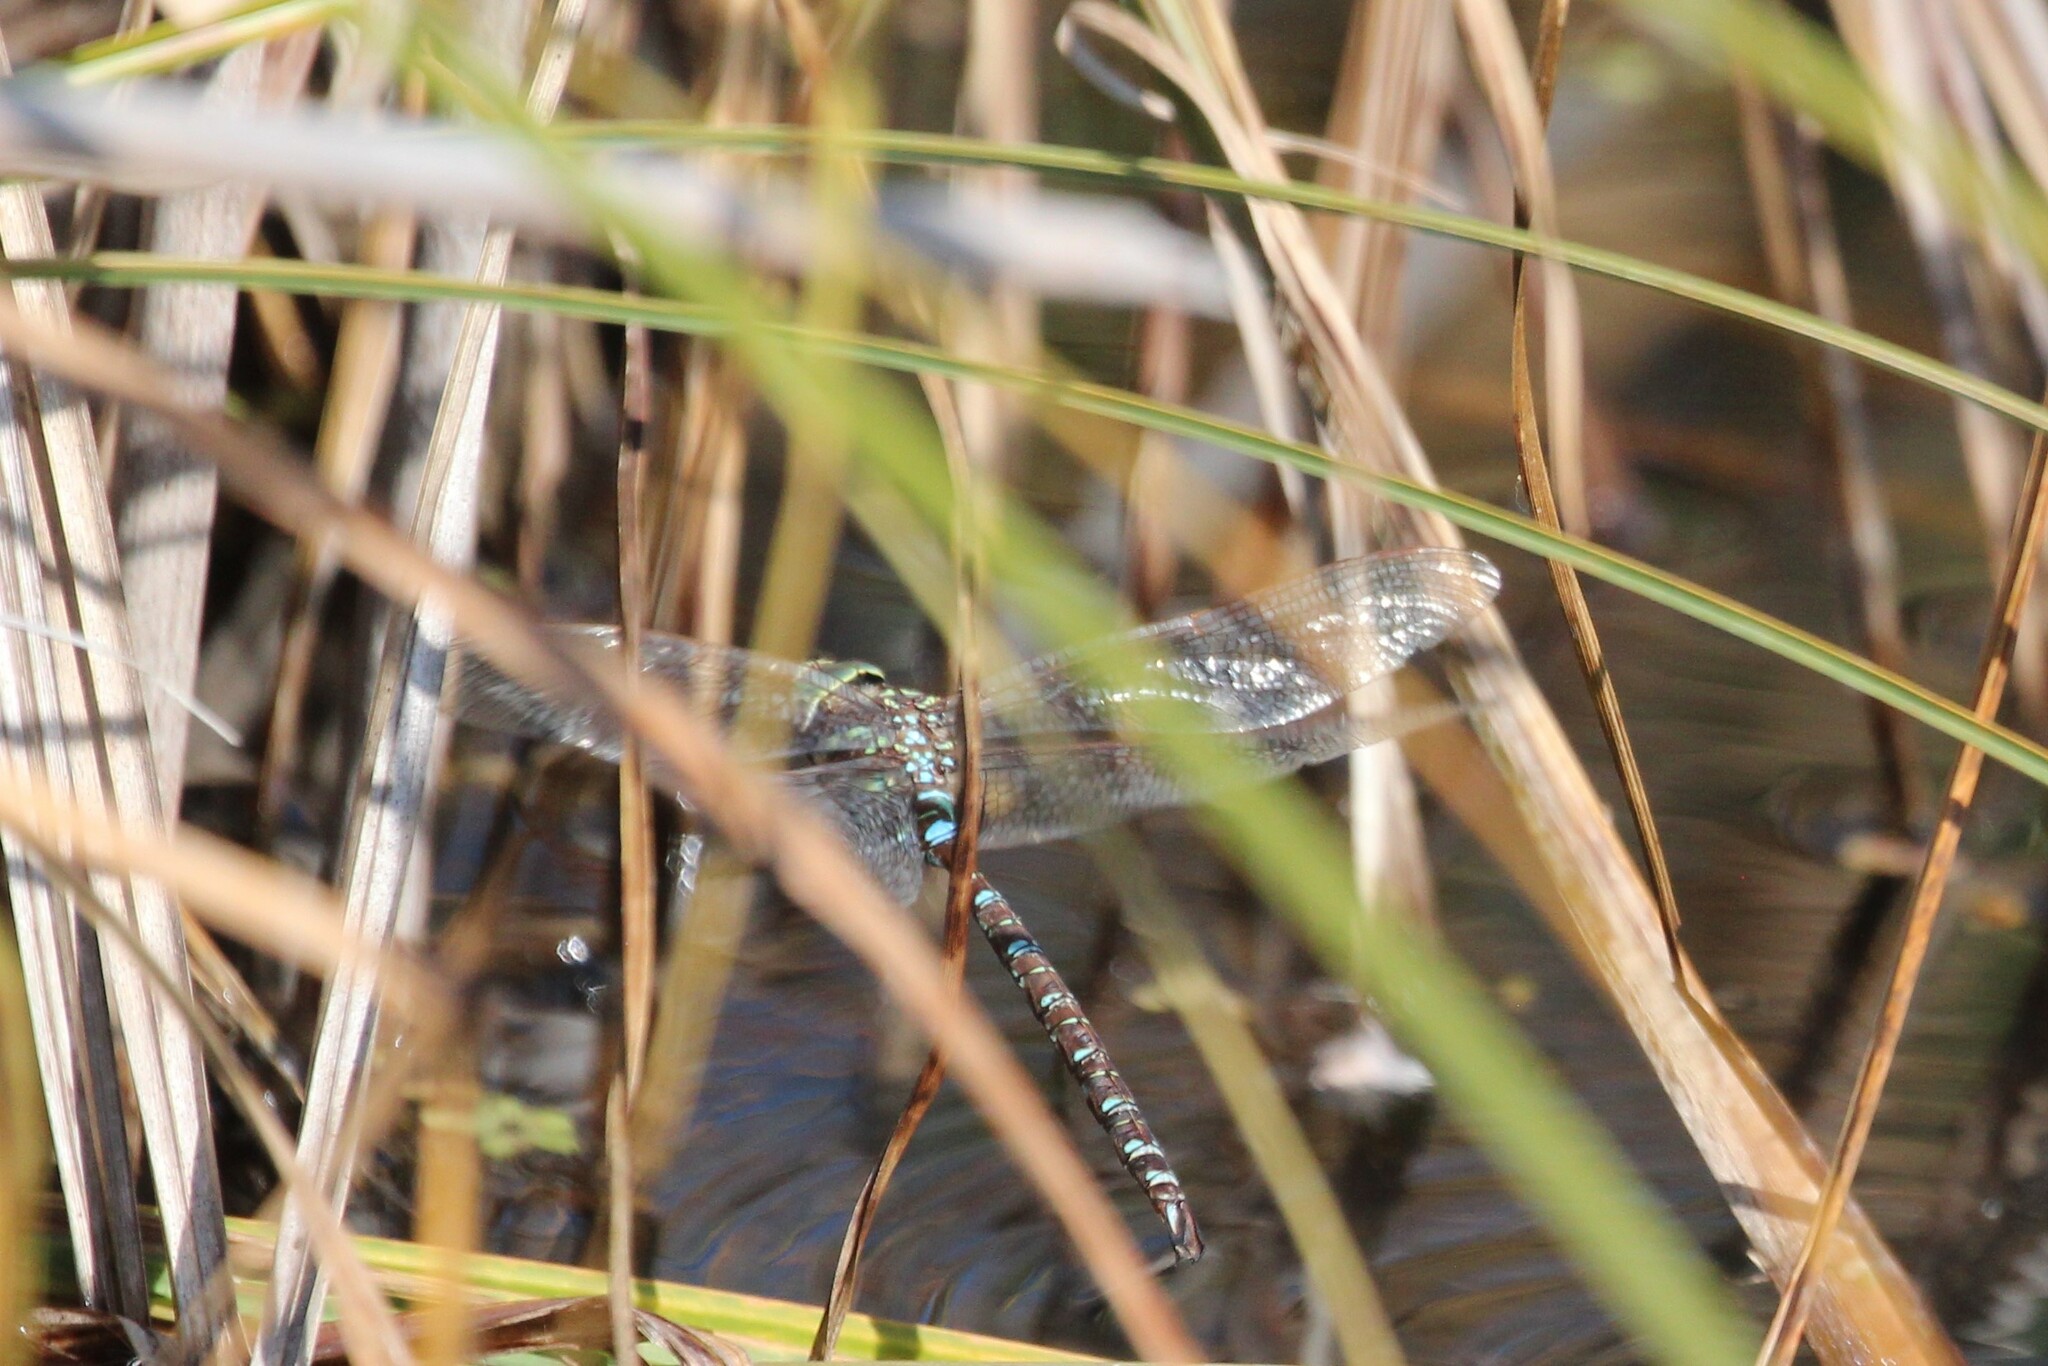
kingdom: Animalia
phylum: Arthropoda
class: Insecta
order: Odonata
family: Aeshnidae
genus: Aeshna
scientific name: Aeshna umbrosa
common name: Shadow darner
